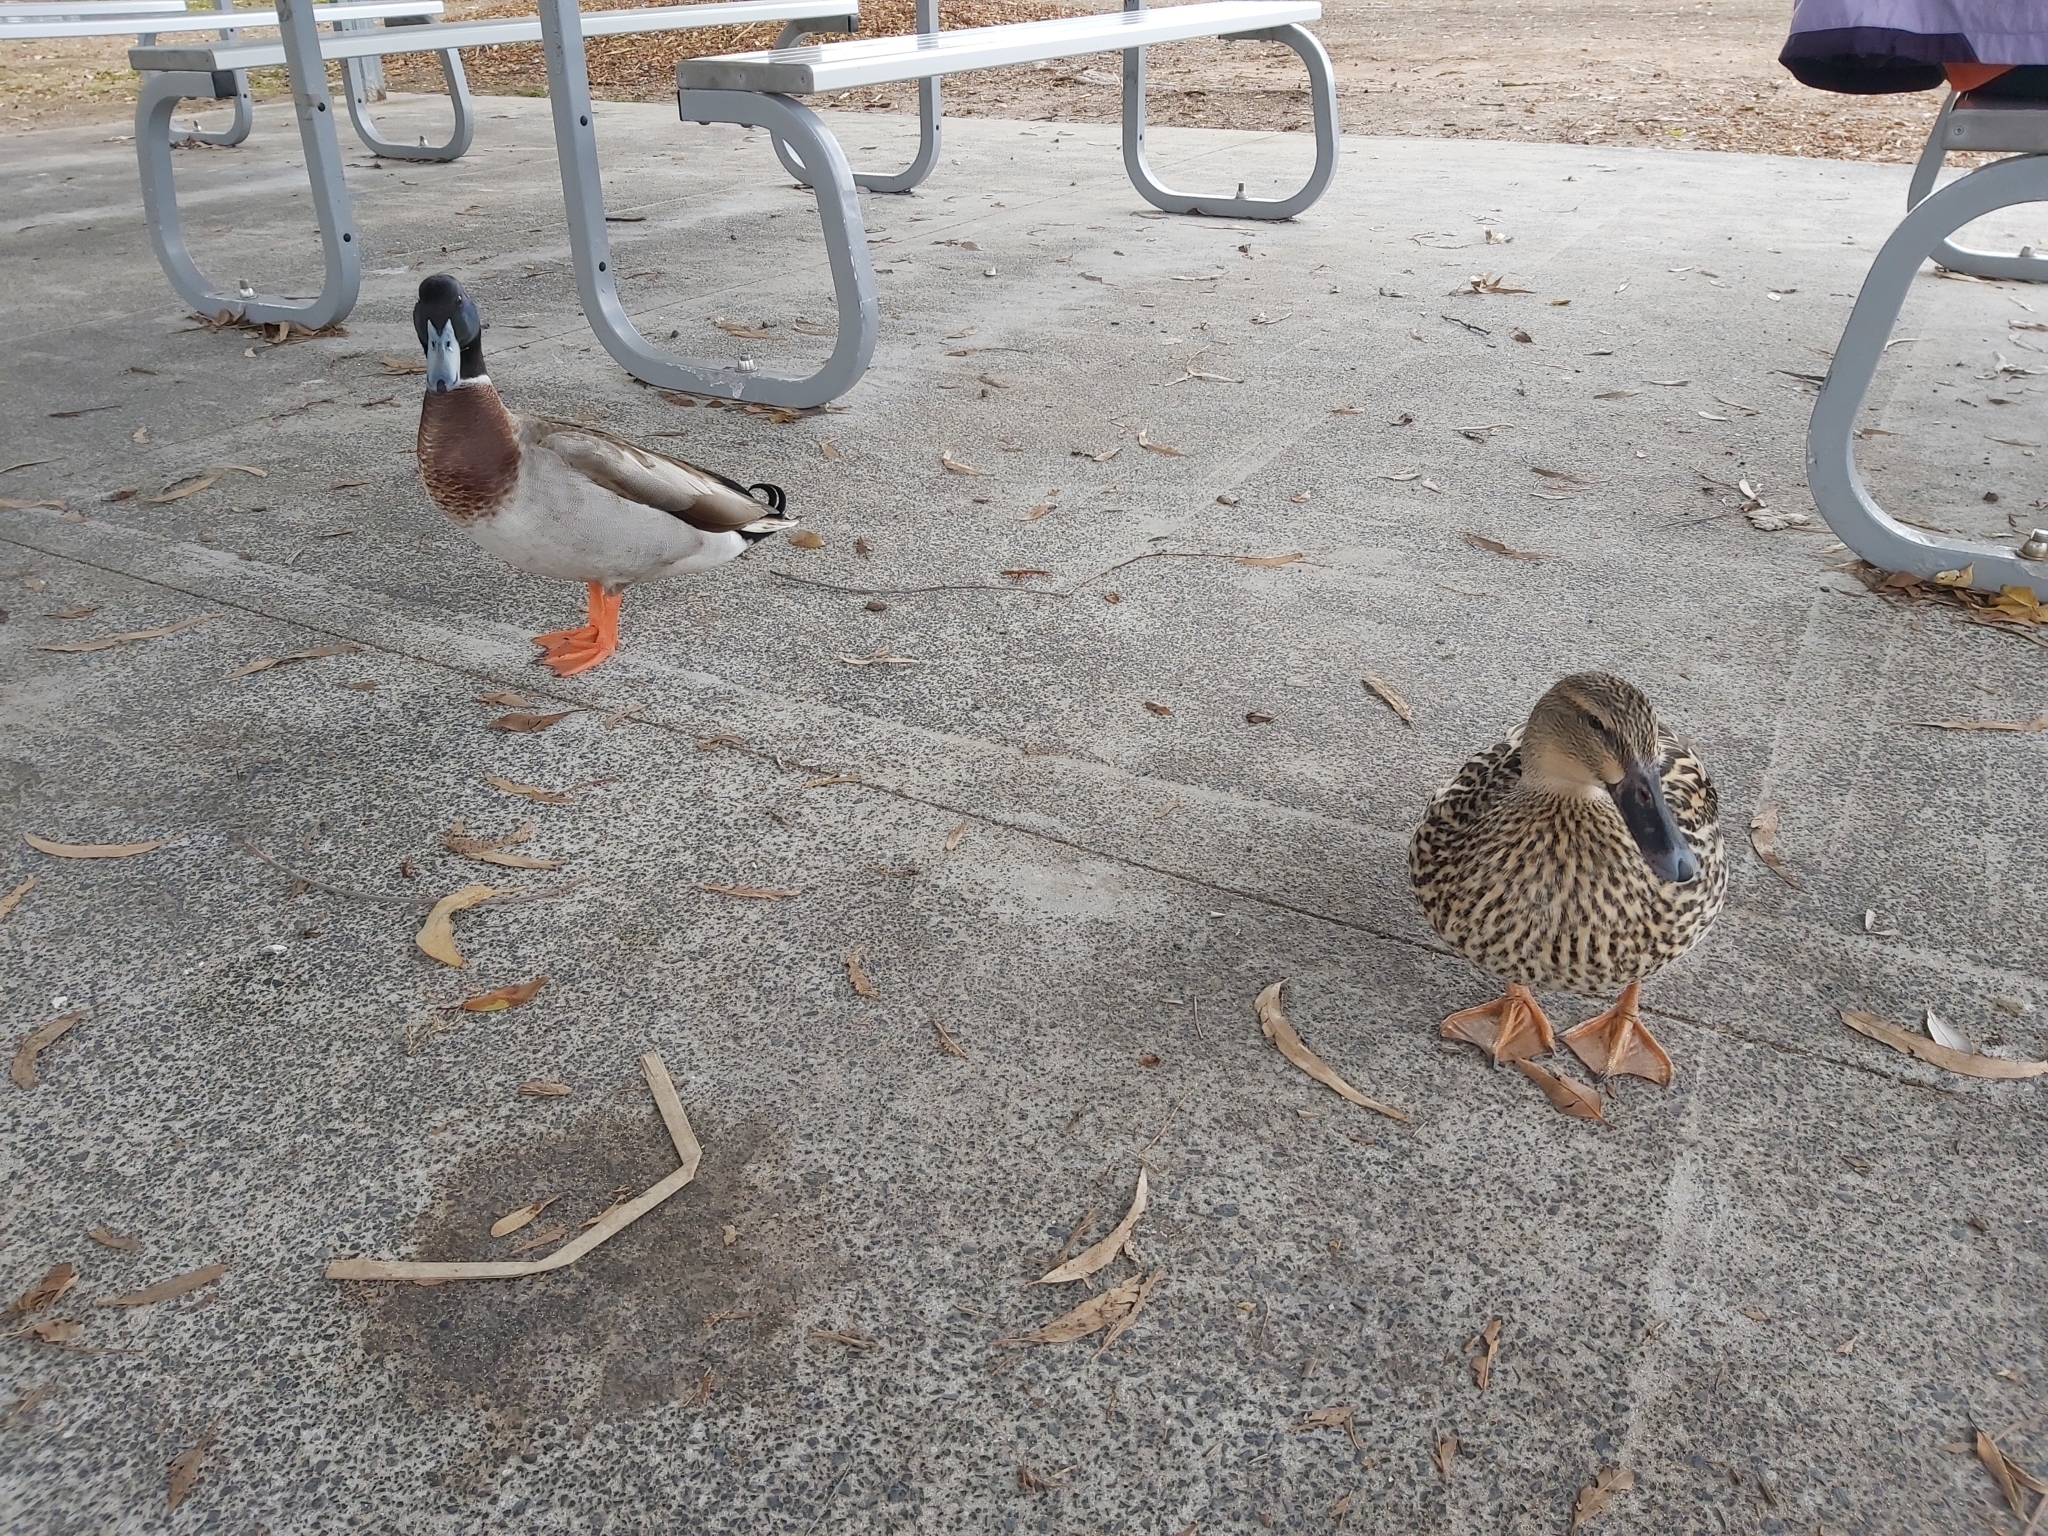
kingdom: Animalia
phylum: Chordata
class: Aves
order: Anseriformes
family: Anatidae
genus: Anas
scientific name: Anas platyrhynchos
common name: Mallard
